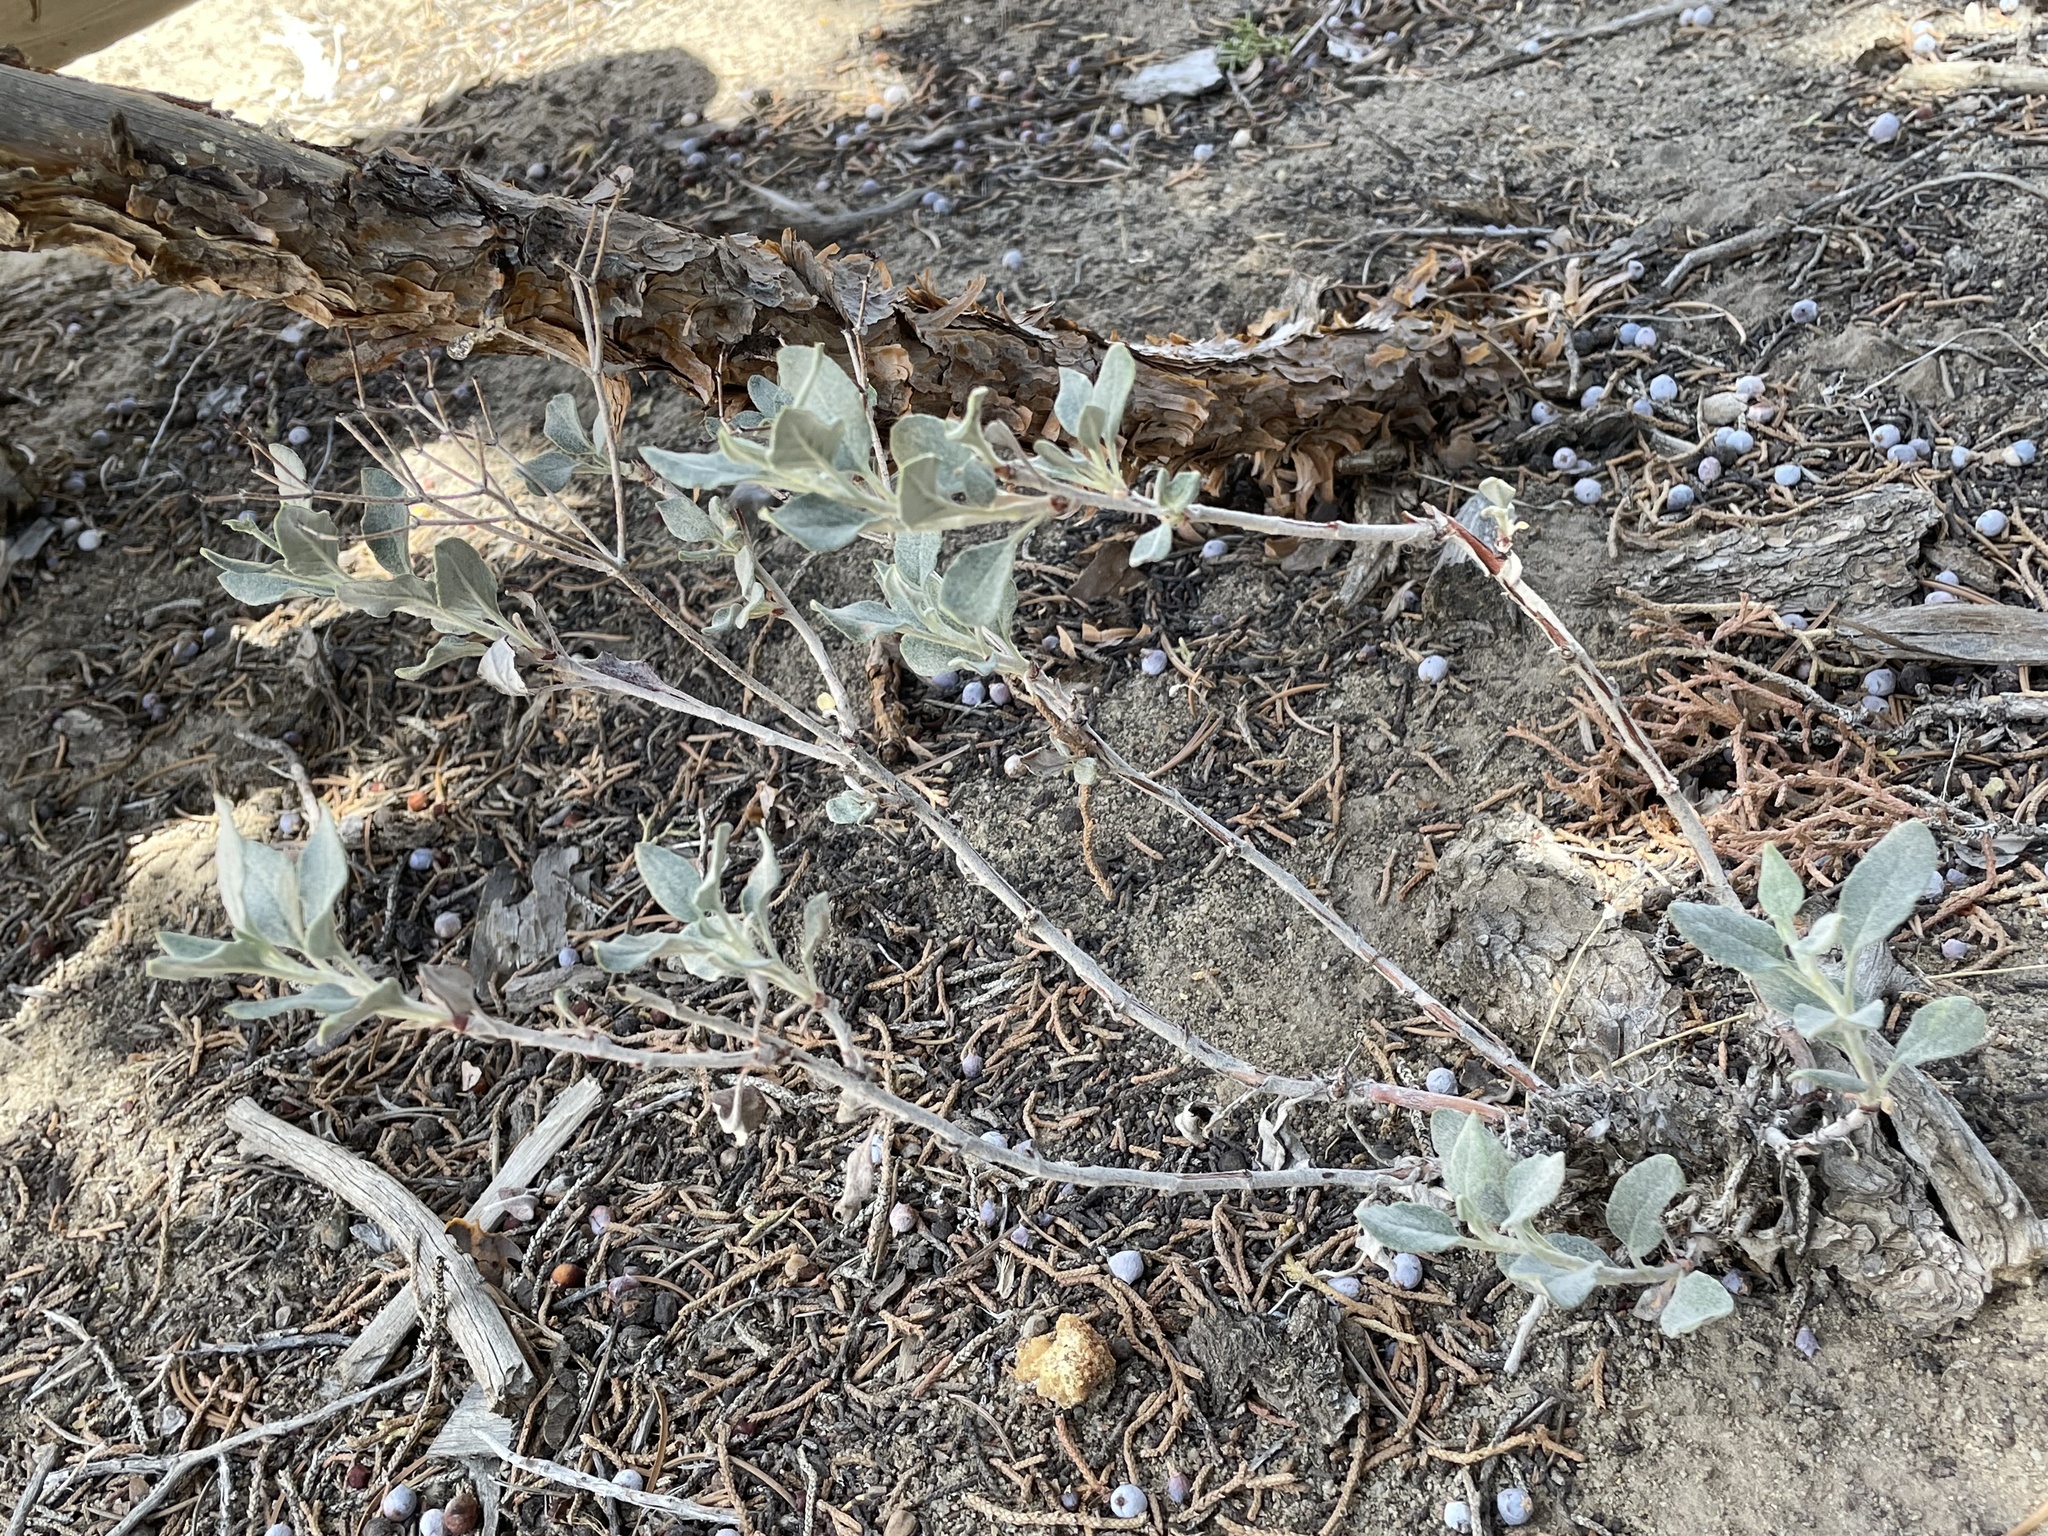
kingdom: Plantae
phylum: Tracheophyta
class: Magnoliopsida
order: Caryophyllales
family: Polygonaceae
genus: Eriogonum
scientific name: Eriogonum corymbosum
